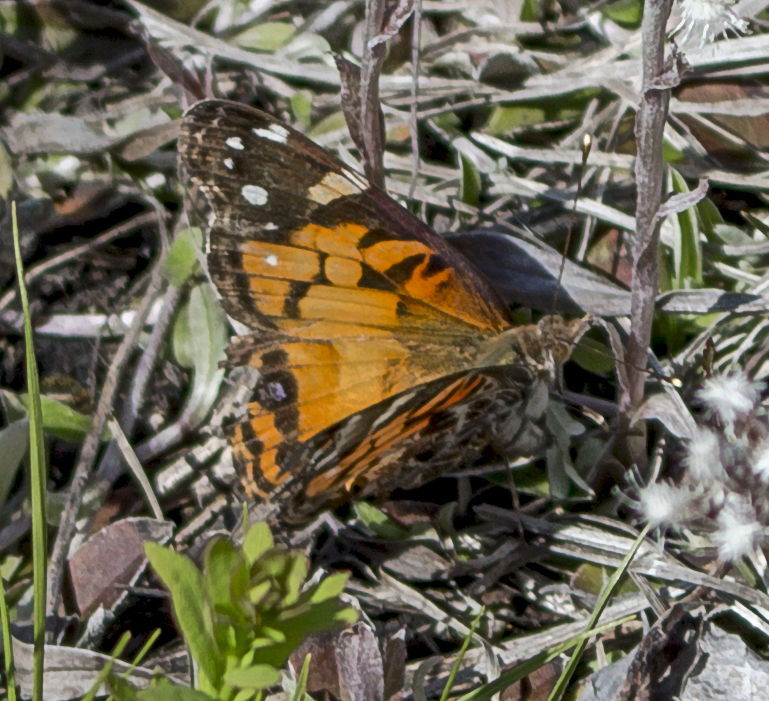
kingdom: Animalia
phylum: Arthropoda
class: Insecta
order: Lepidoptera
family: Nymphalidae
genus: Vanessa
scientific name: Vanessa virginiensis
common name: American lady
